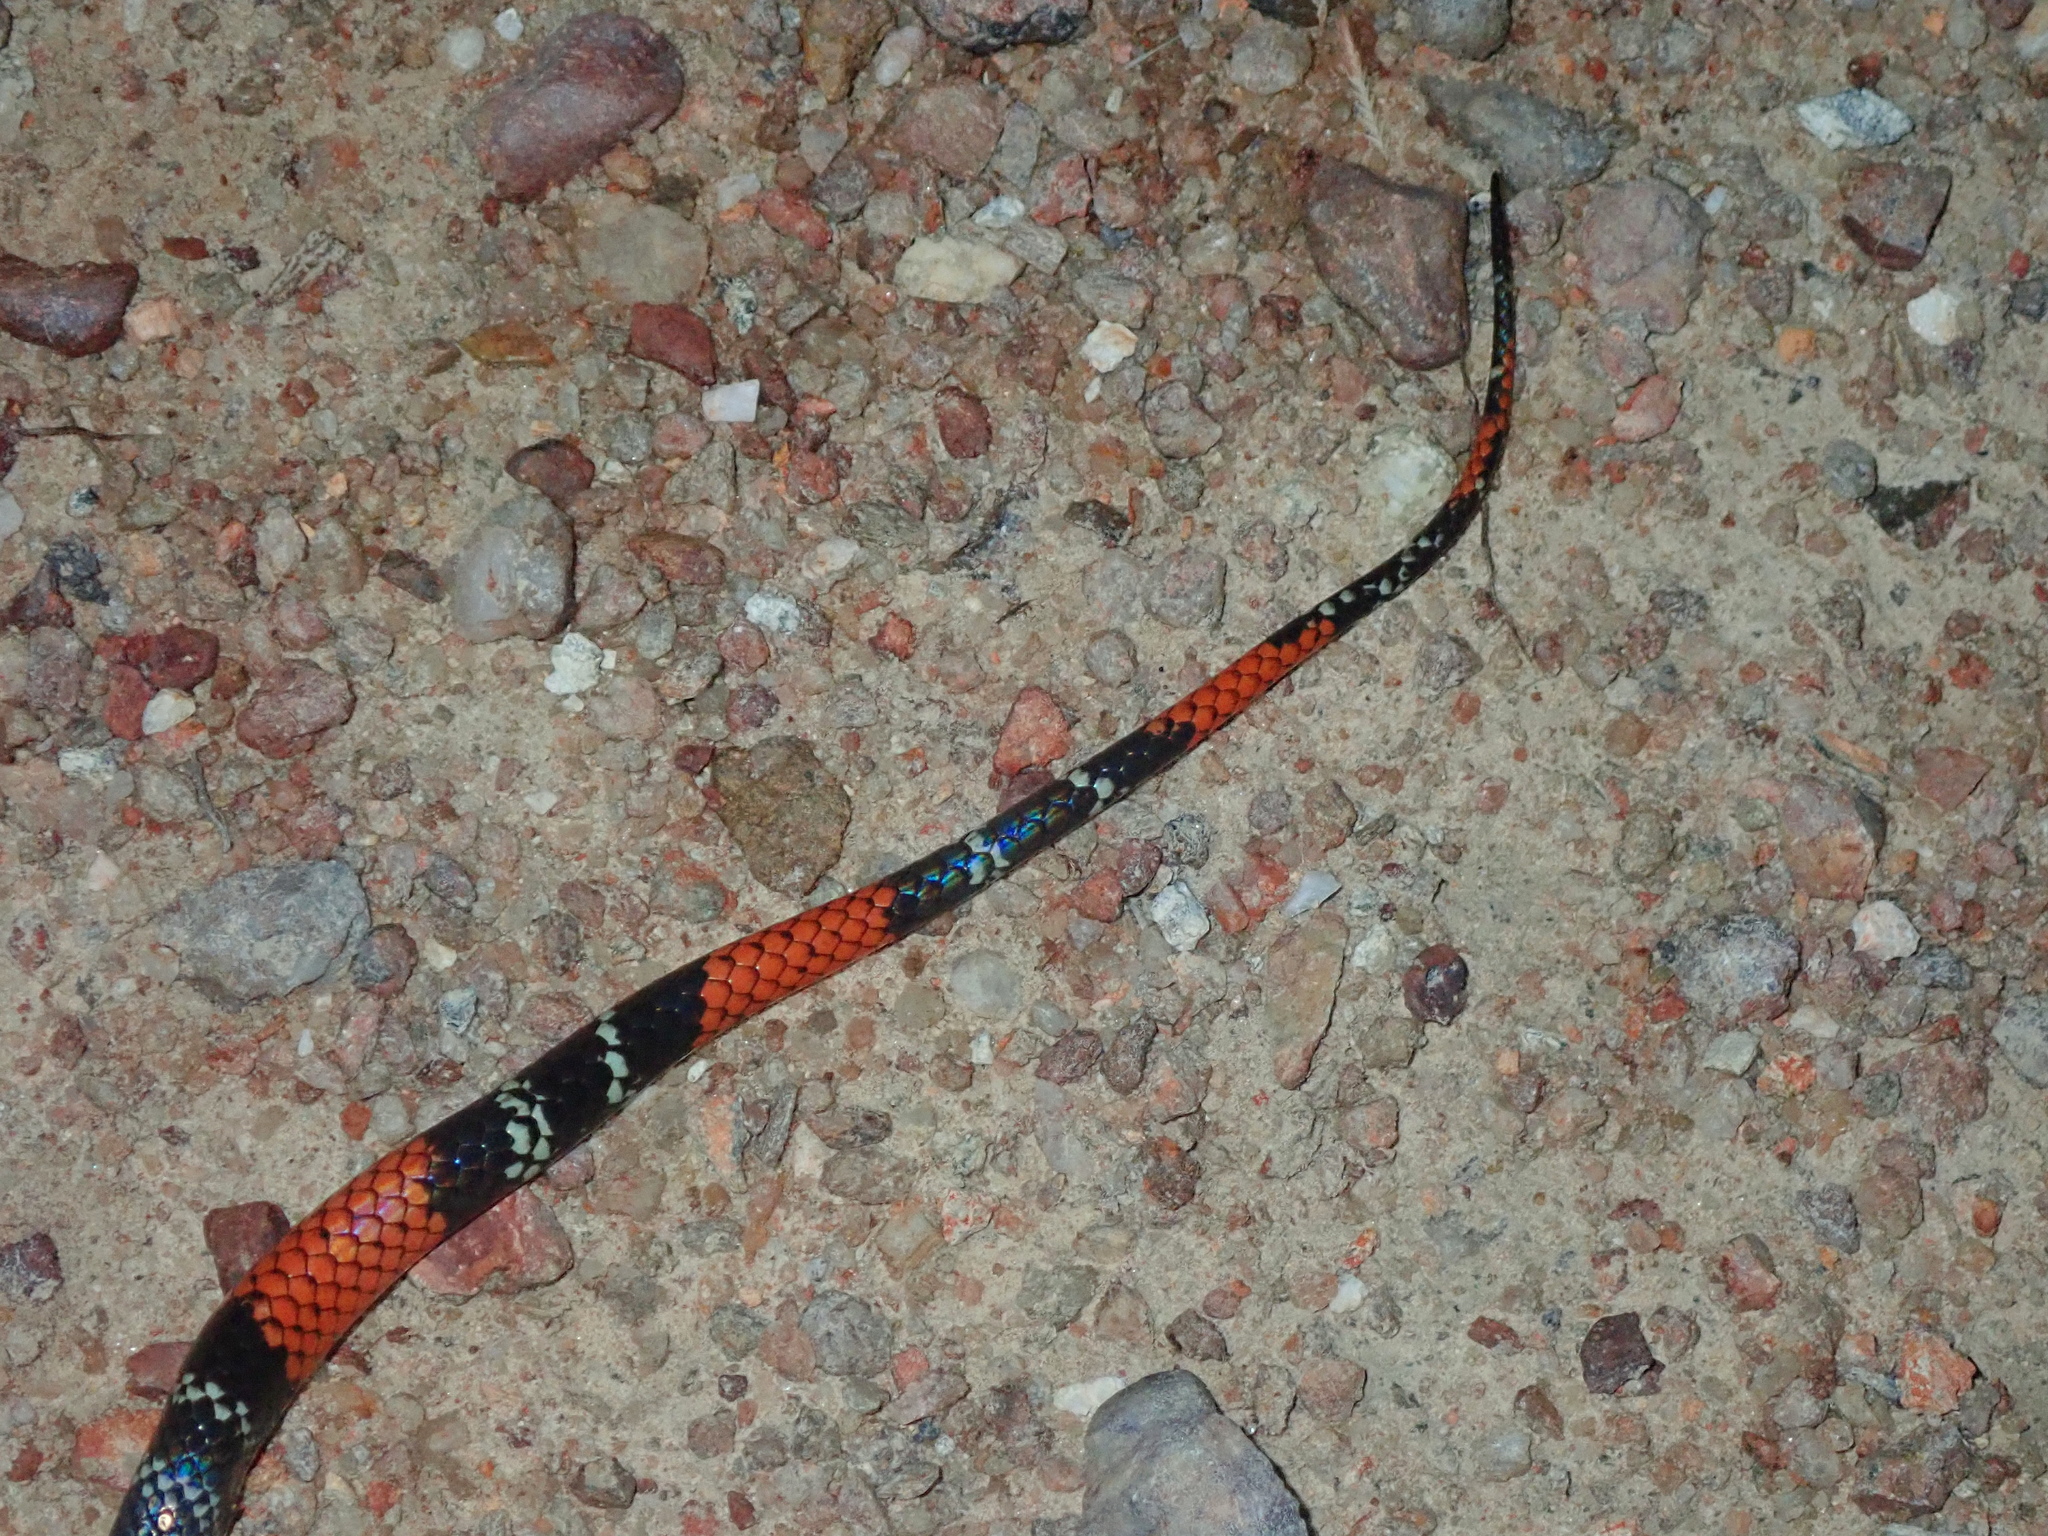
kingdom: Animalia
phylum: Chordata
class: Squamata
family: Colubridae
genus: Oxyrhopus
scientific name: Oxyrhopus trigeminus
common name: Brazilian false coral snake
